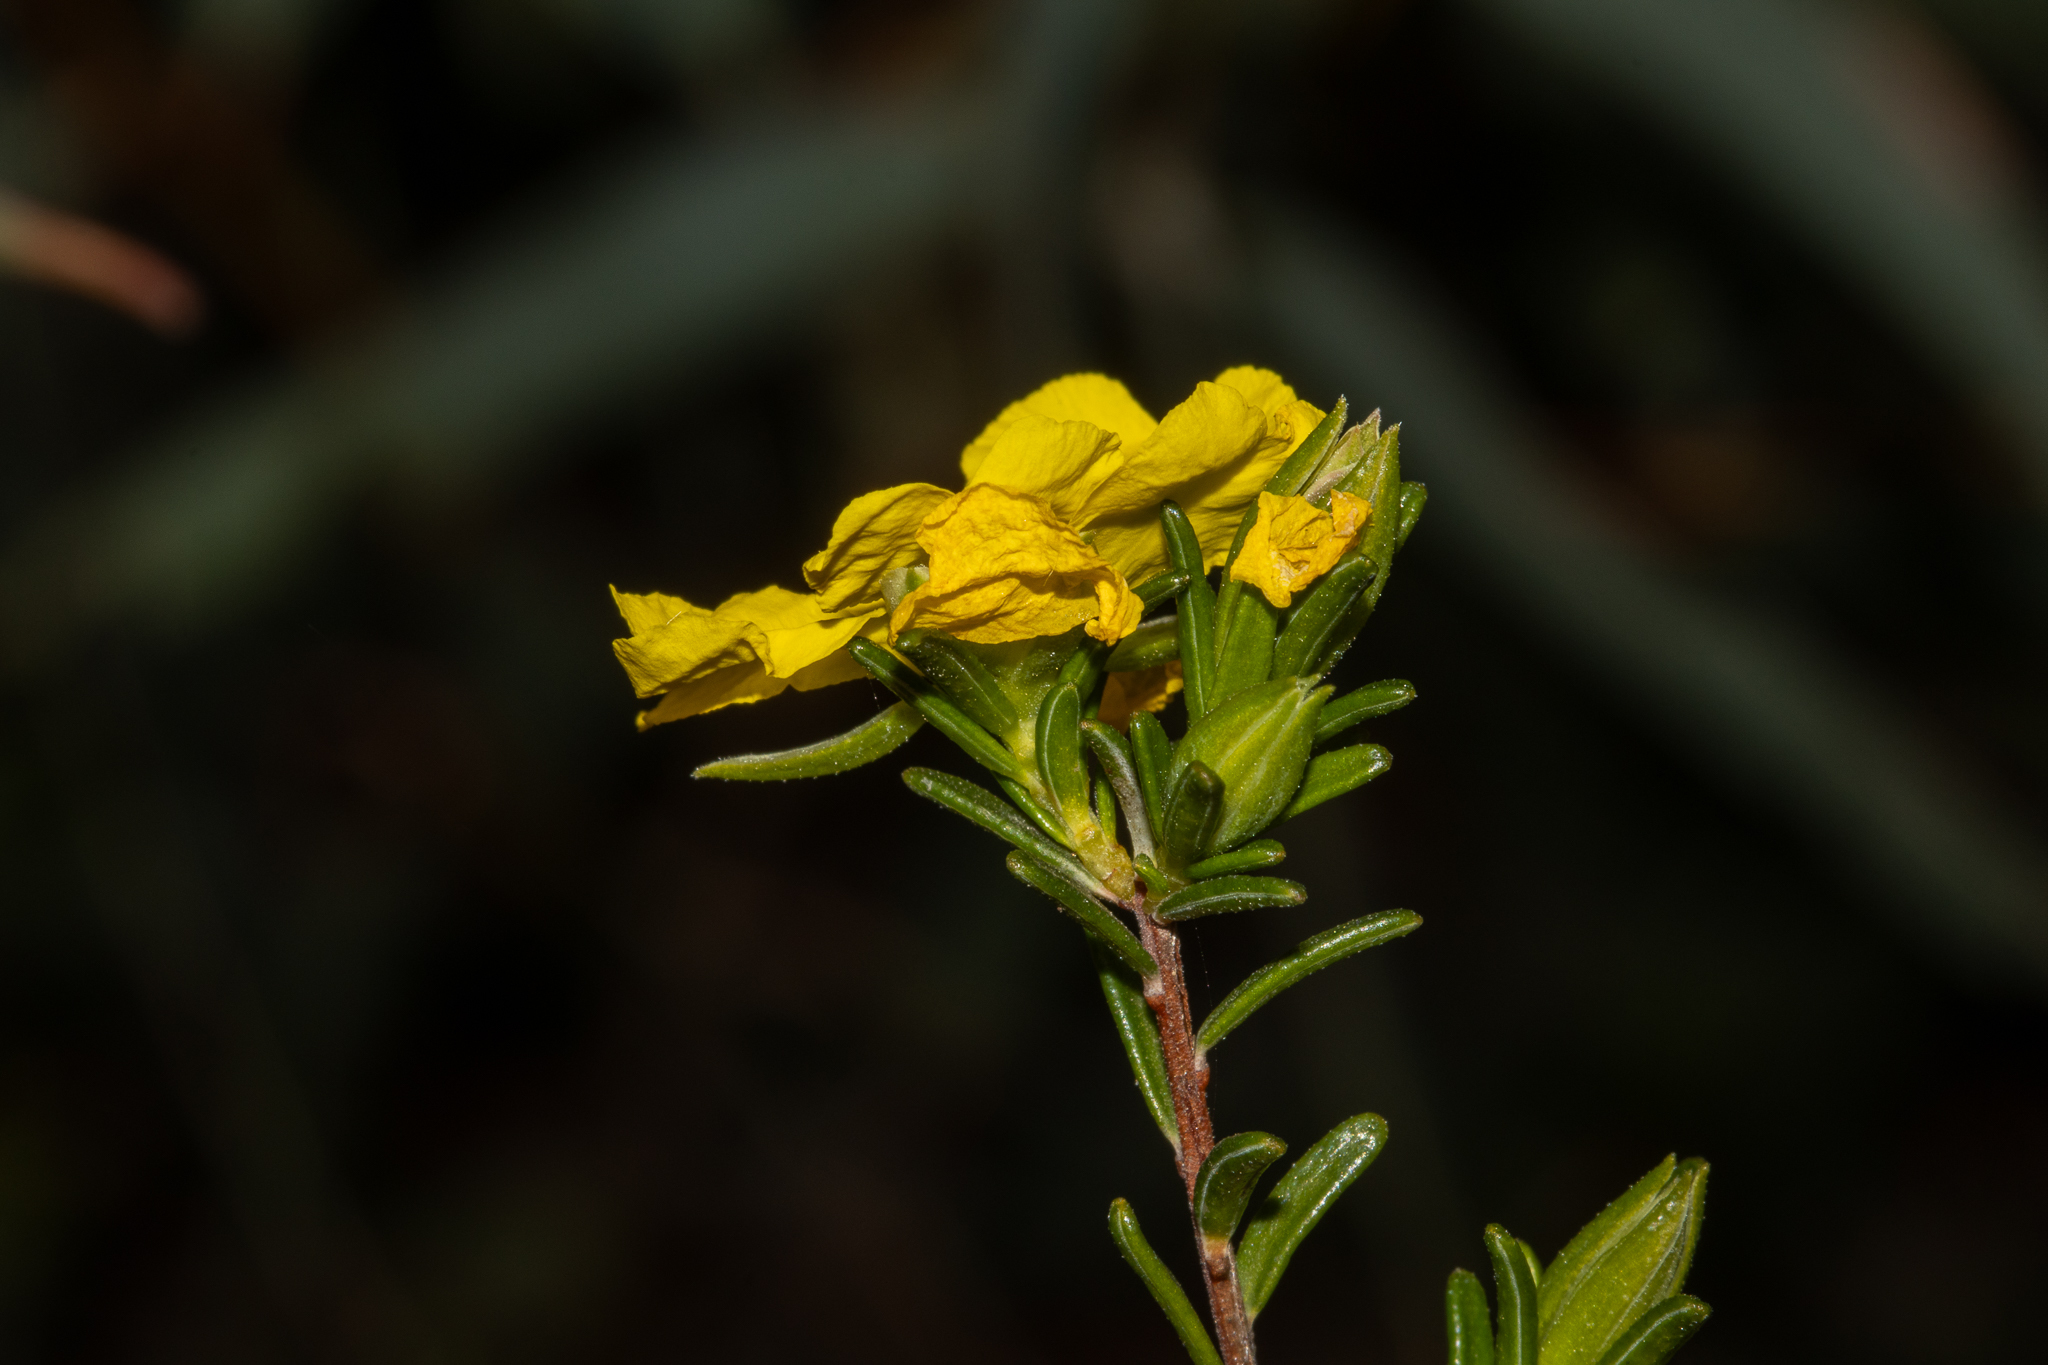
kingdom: Plantae
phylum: Tracheophyta
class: Magnoliopsida
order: Dilleniales
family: Dilleniaceae
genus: Hibbertia
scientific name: Hibbertia devitata
